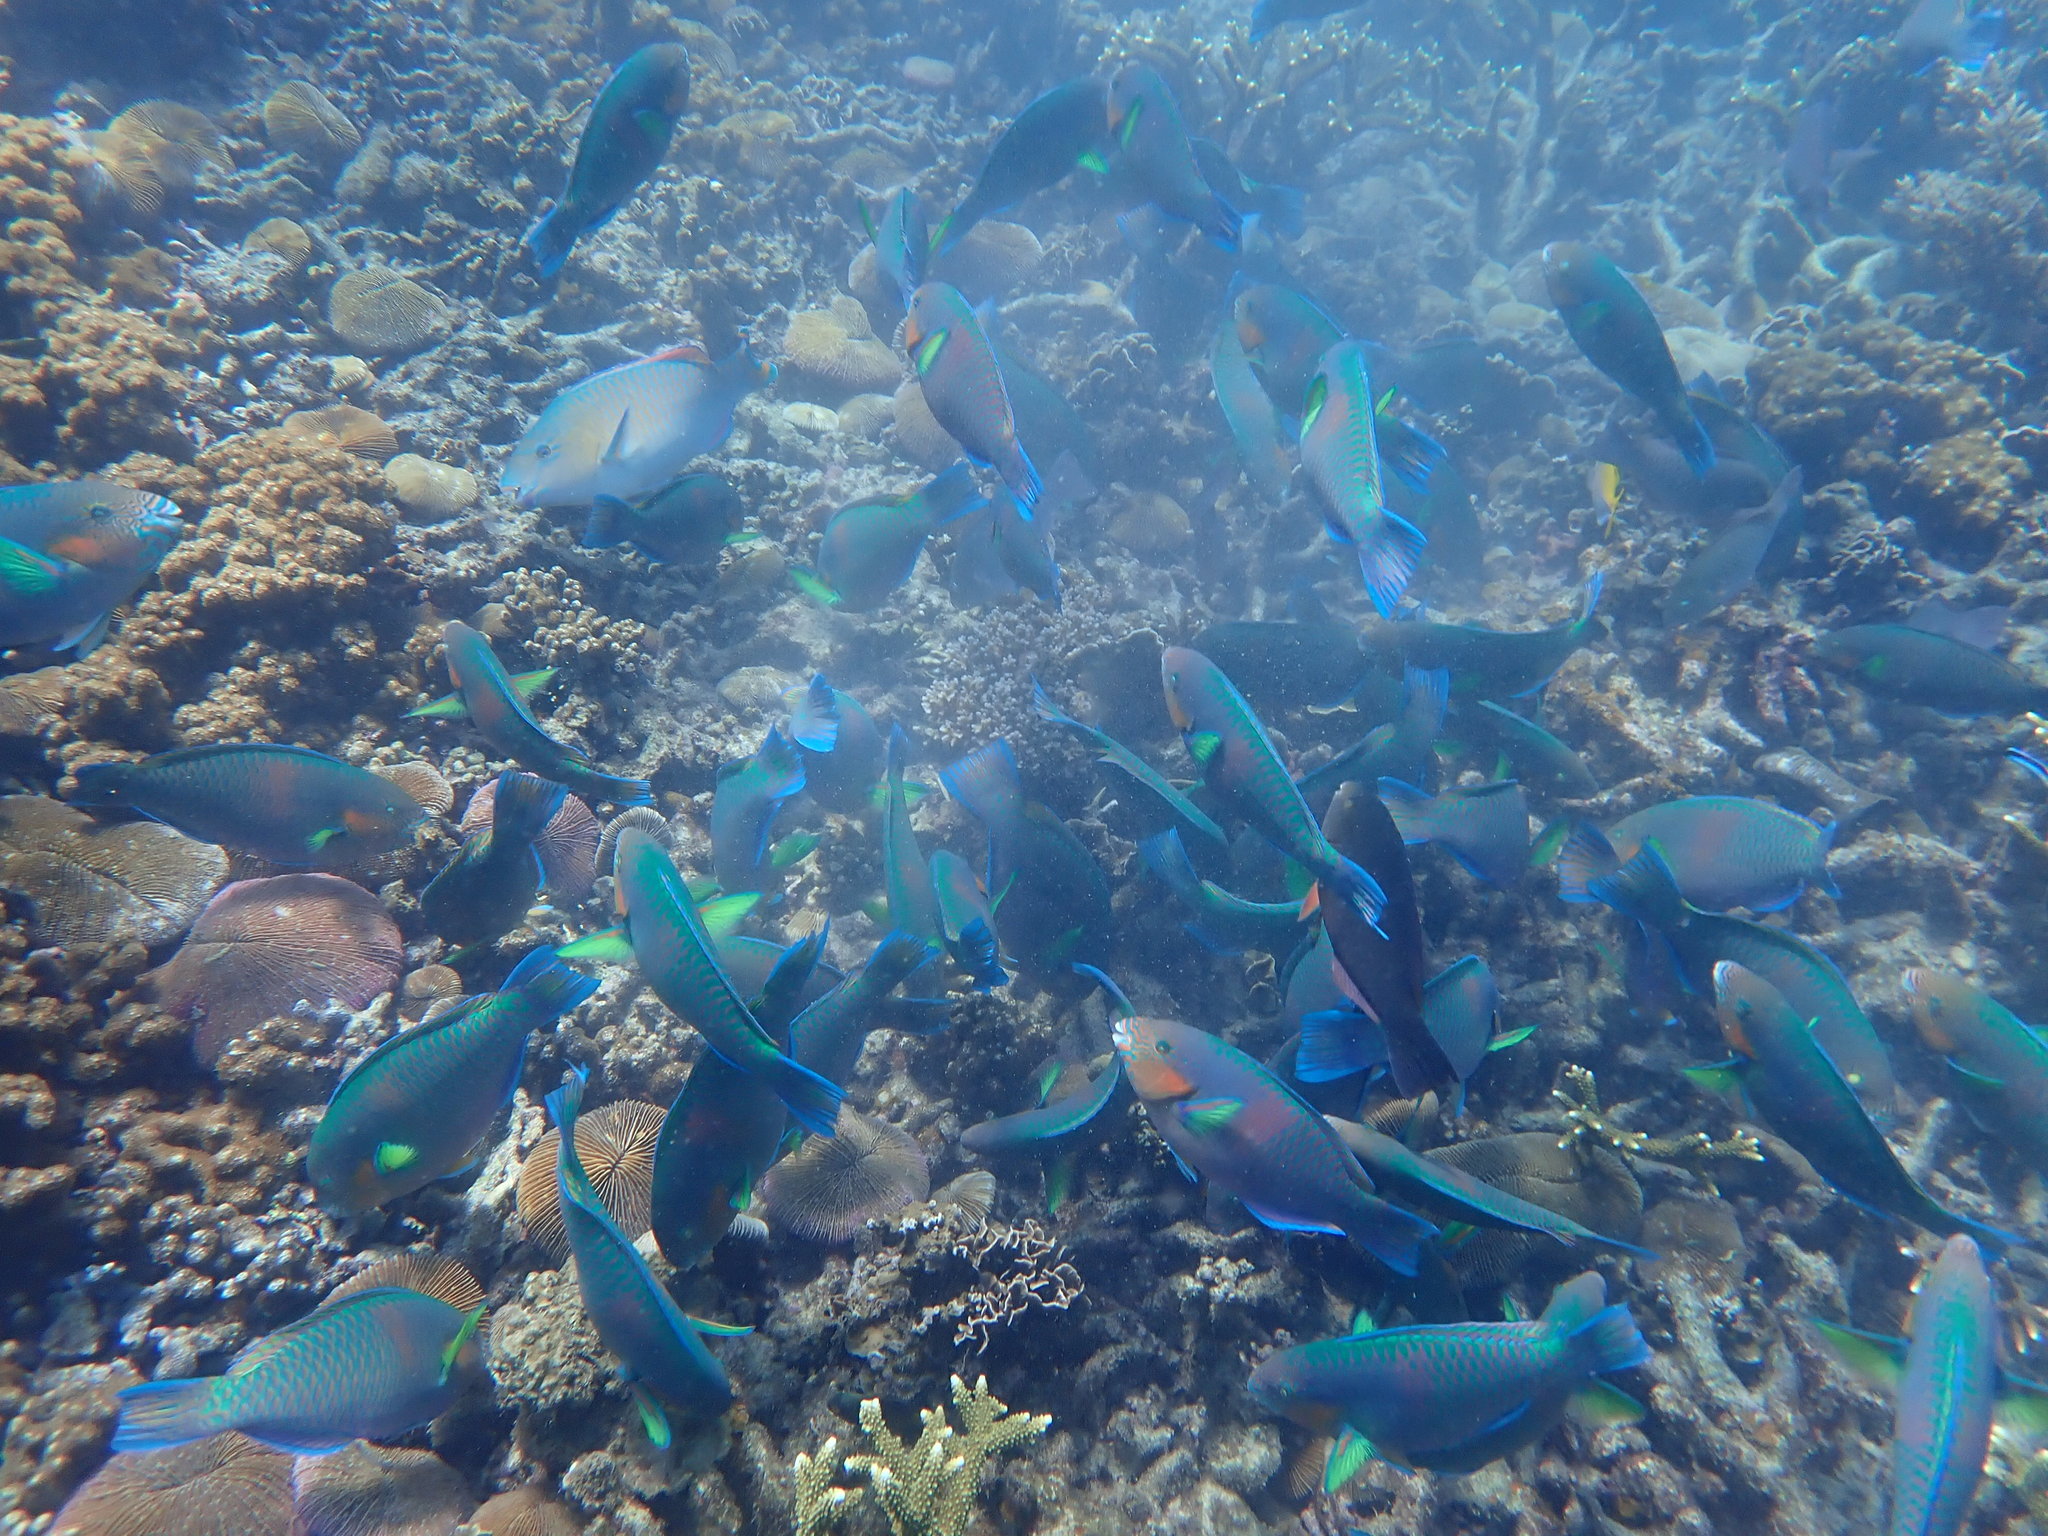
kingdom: Animalia
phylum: Chordata
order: Perciformes
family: Scaridae
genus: Scarus
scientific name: Scarus rivulatus
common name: Surf parrotfish
